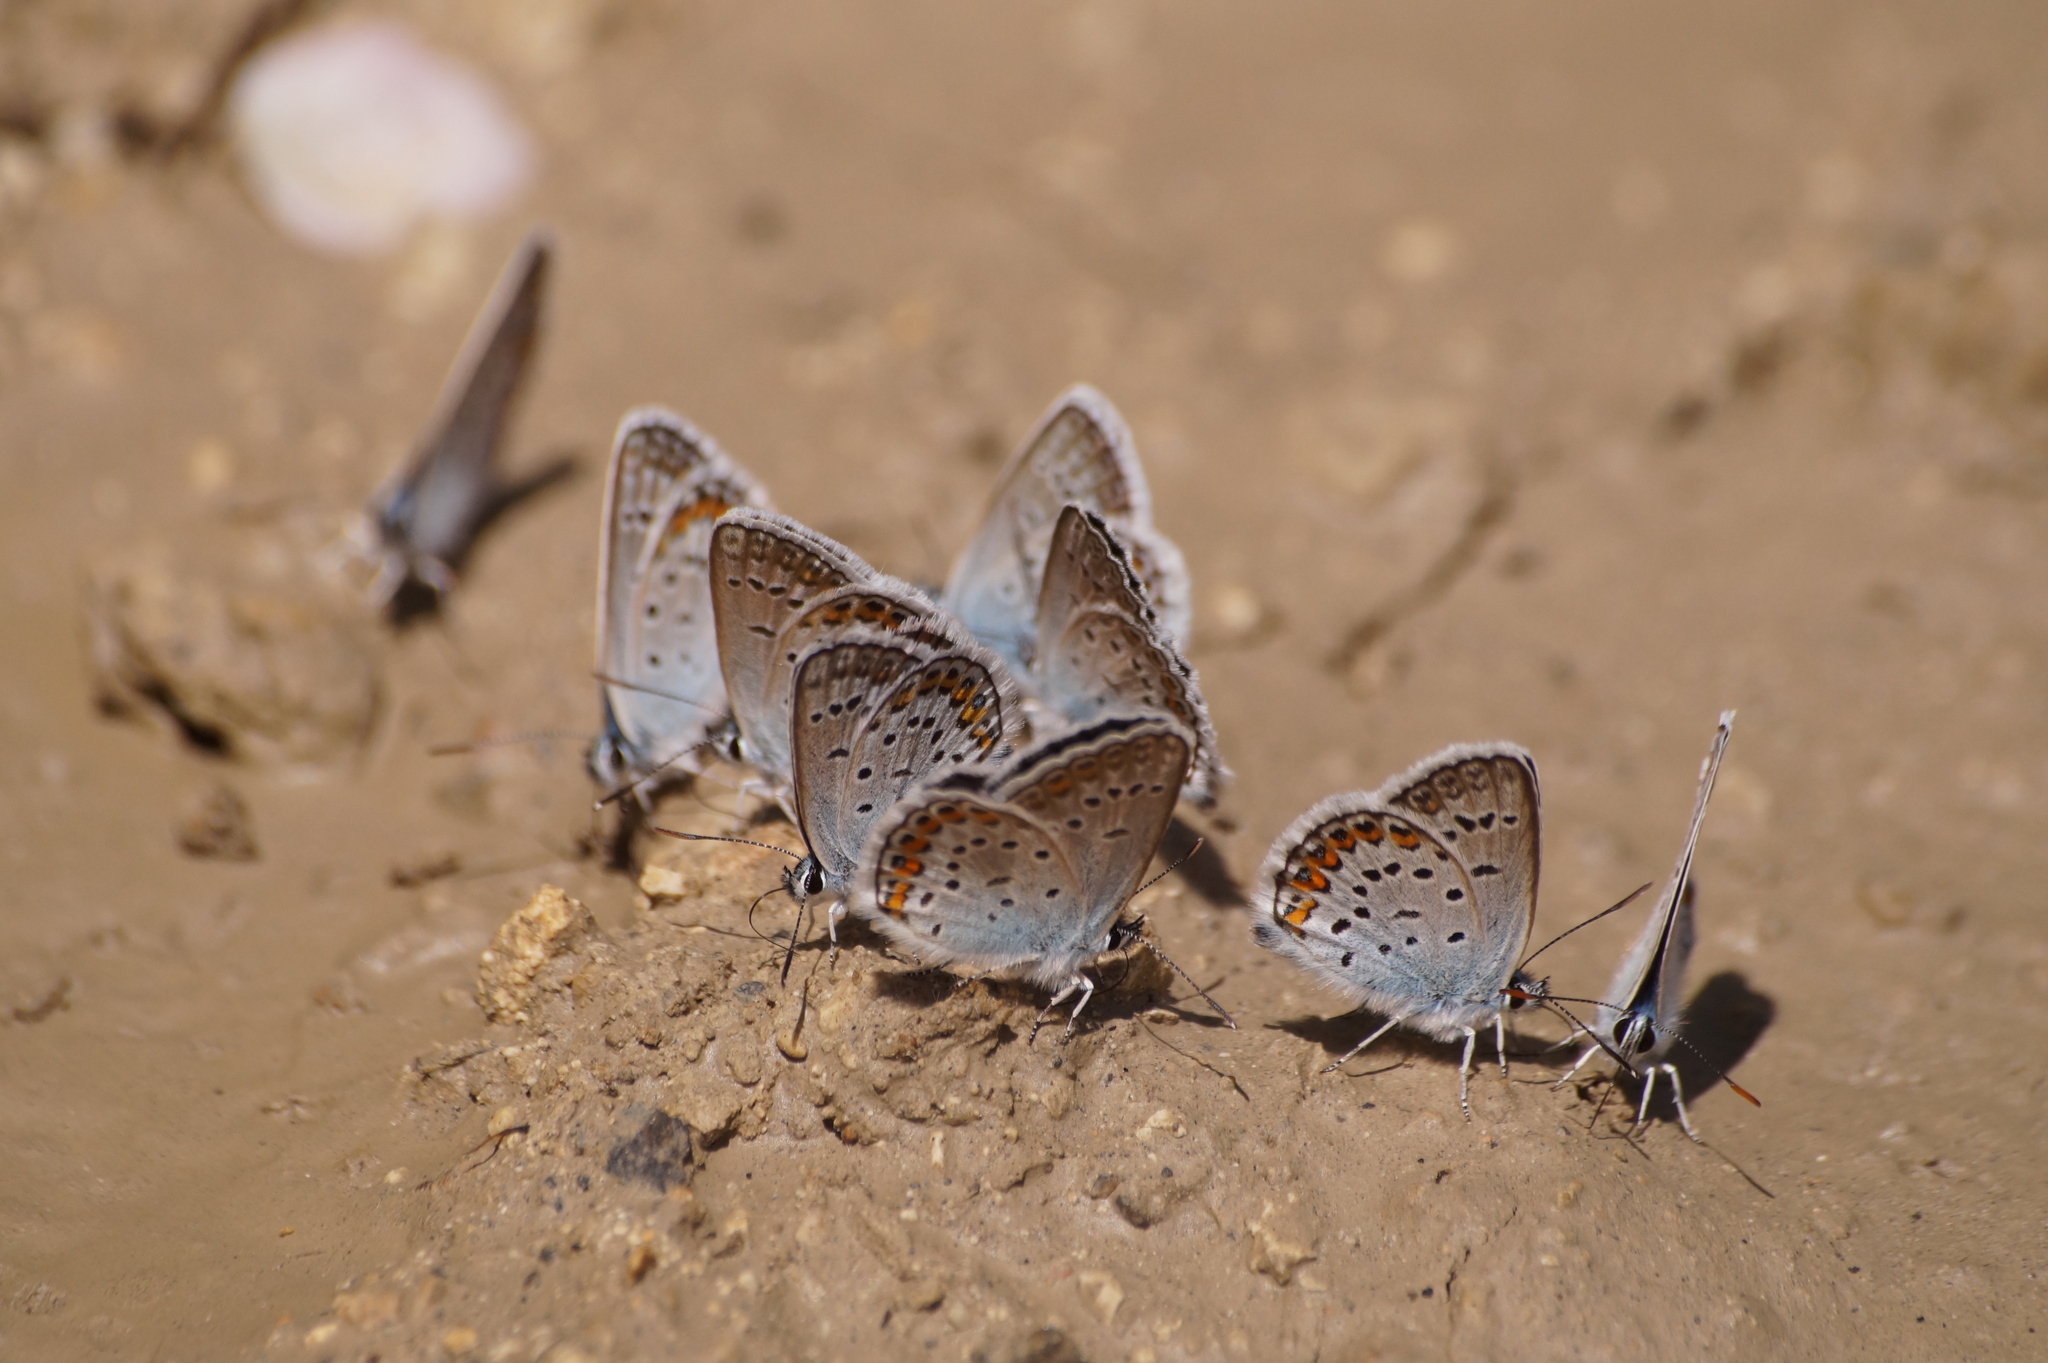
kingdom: Animalia
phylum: Arthropoda
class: Insecta
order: Lepidoptera
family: Lycaenidae
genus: Plebejus
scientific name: Plebejus argus
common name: Silver-studded blue
